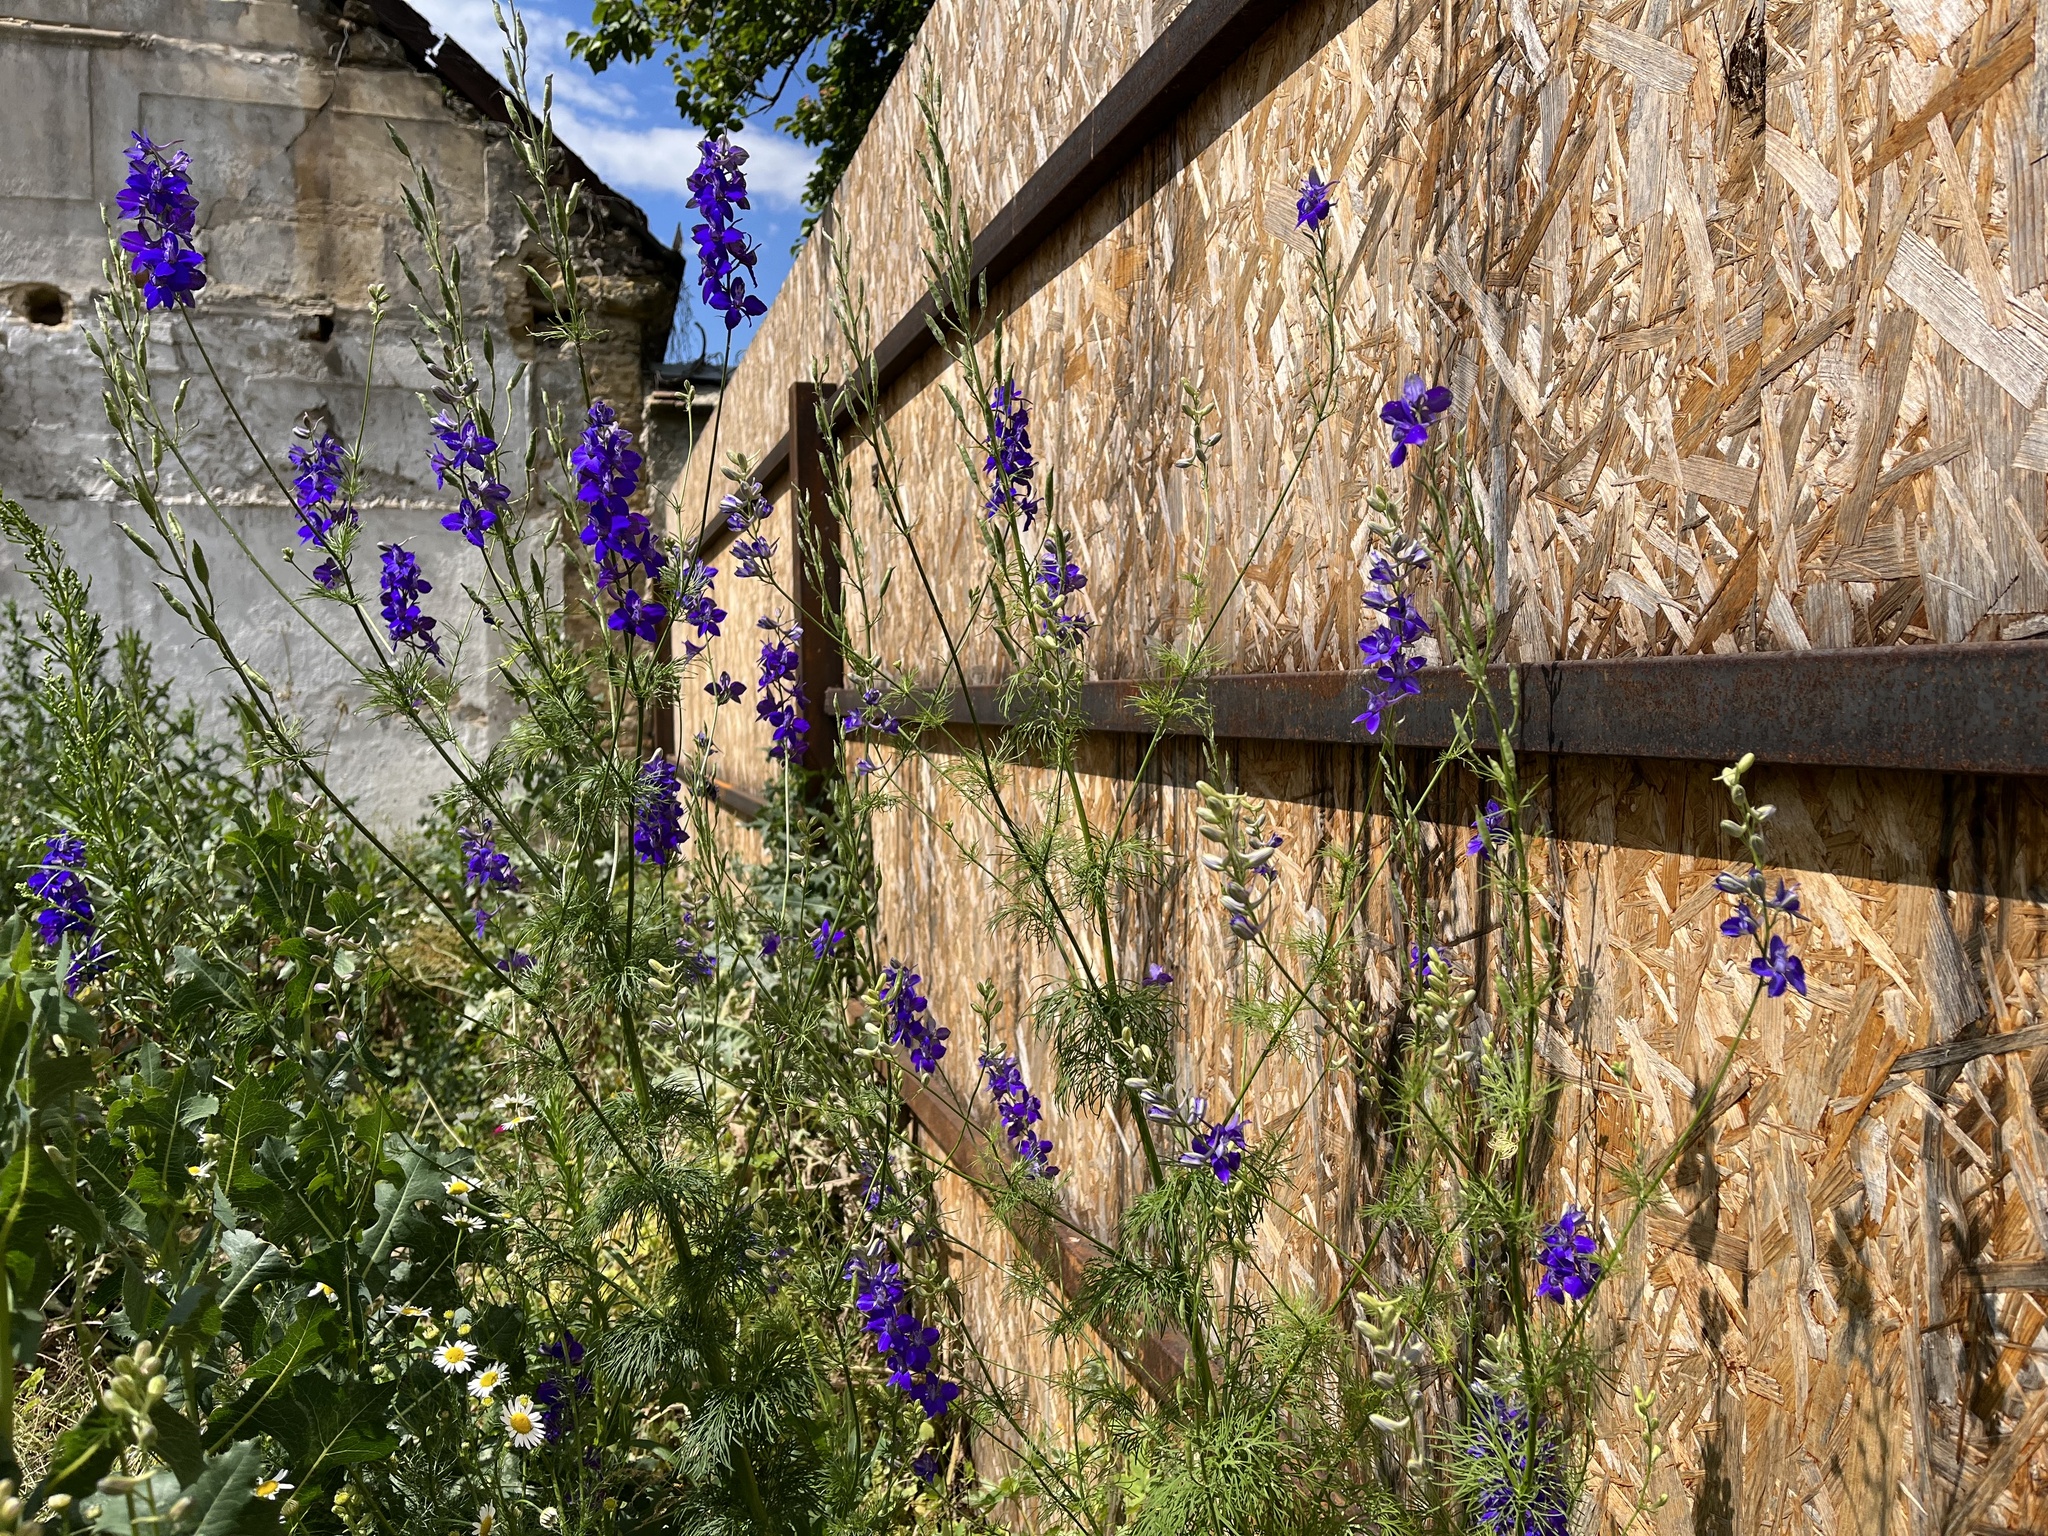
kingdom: Plantae
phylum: Tracheophyta
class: Magnoliopsida
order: Ranunculales
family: Ranunculaceae
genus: Delphinium
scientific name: Delphinium ajacis
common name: Doubtful knight's-spur
